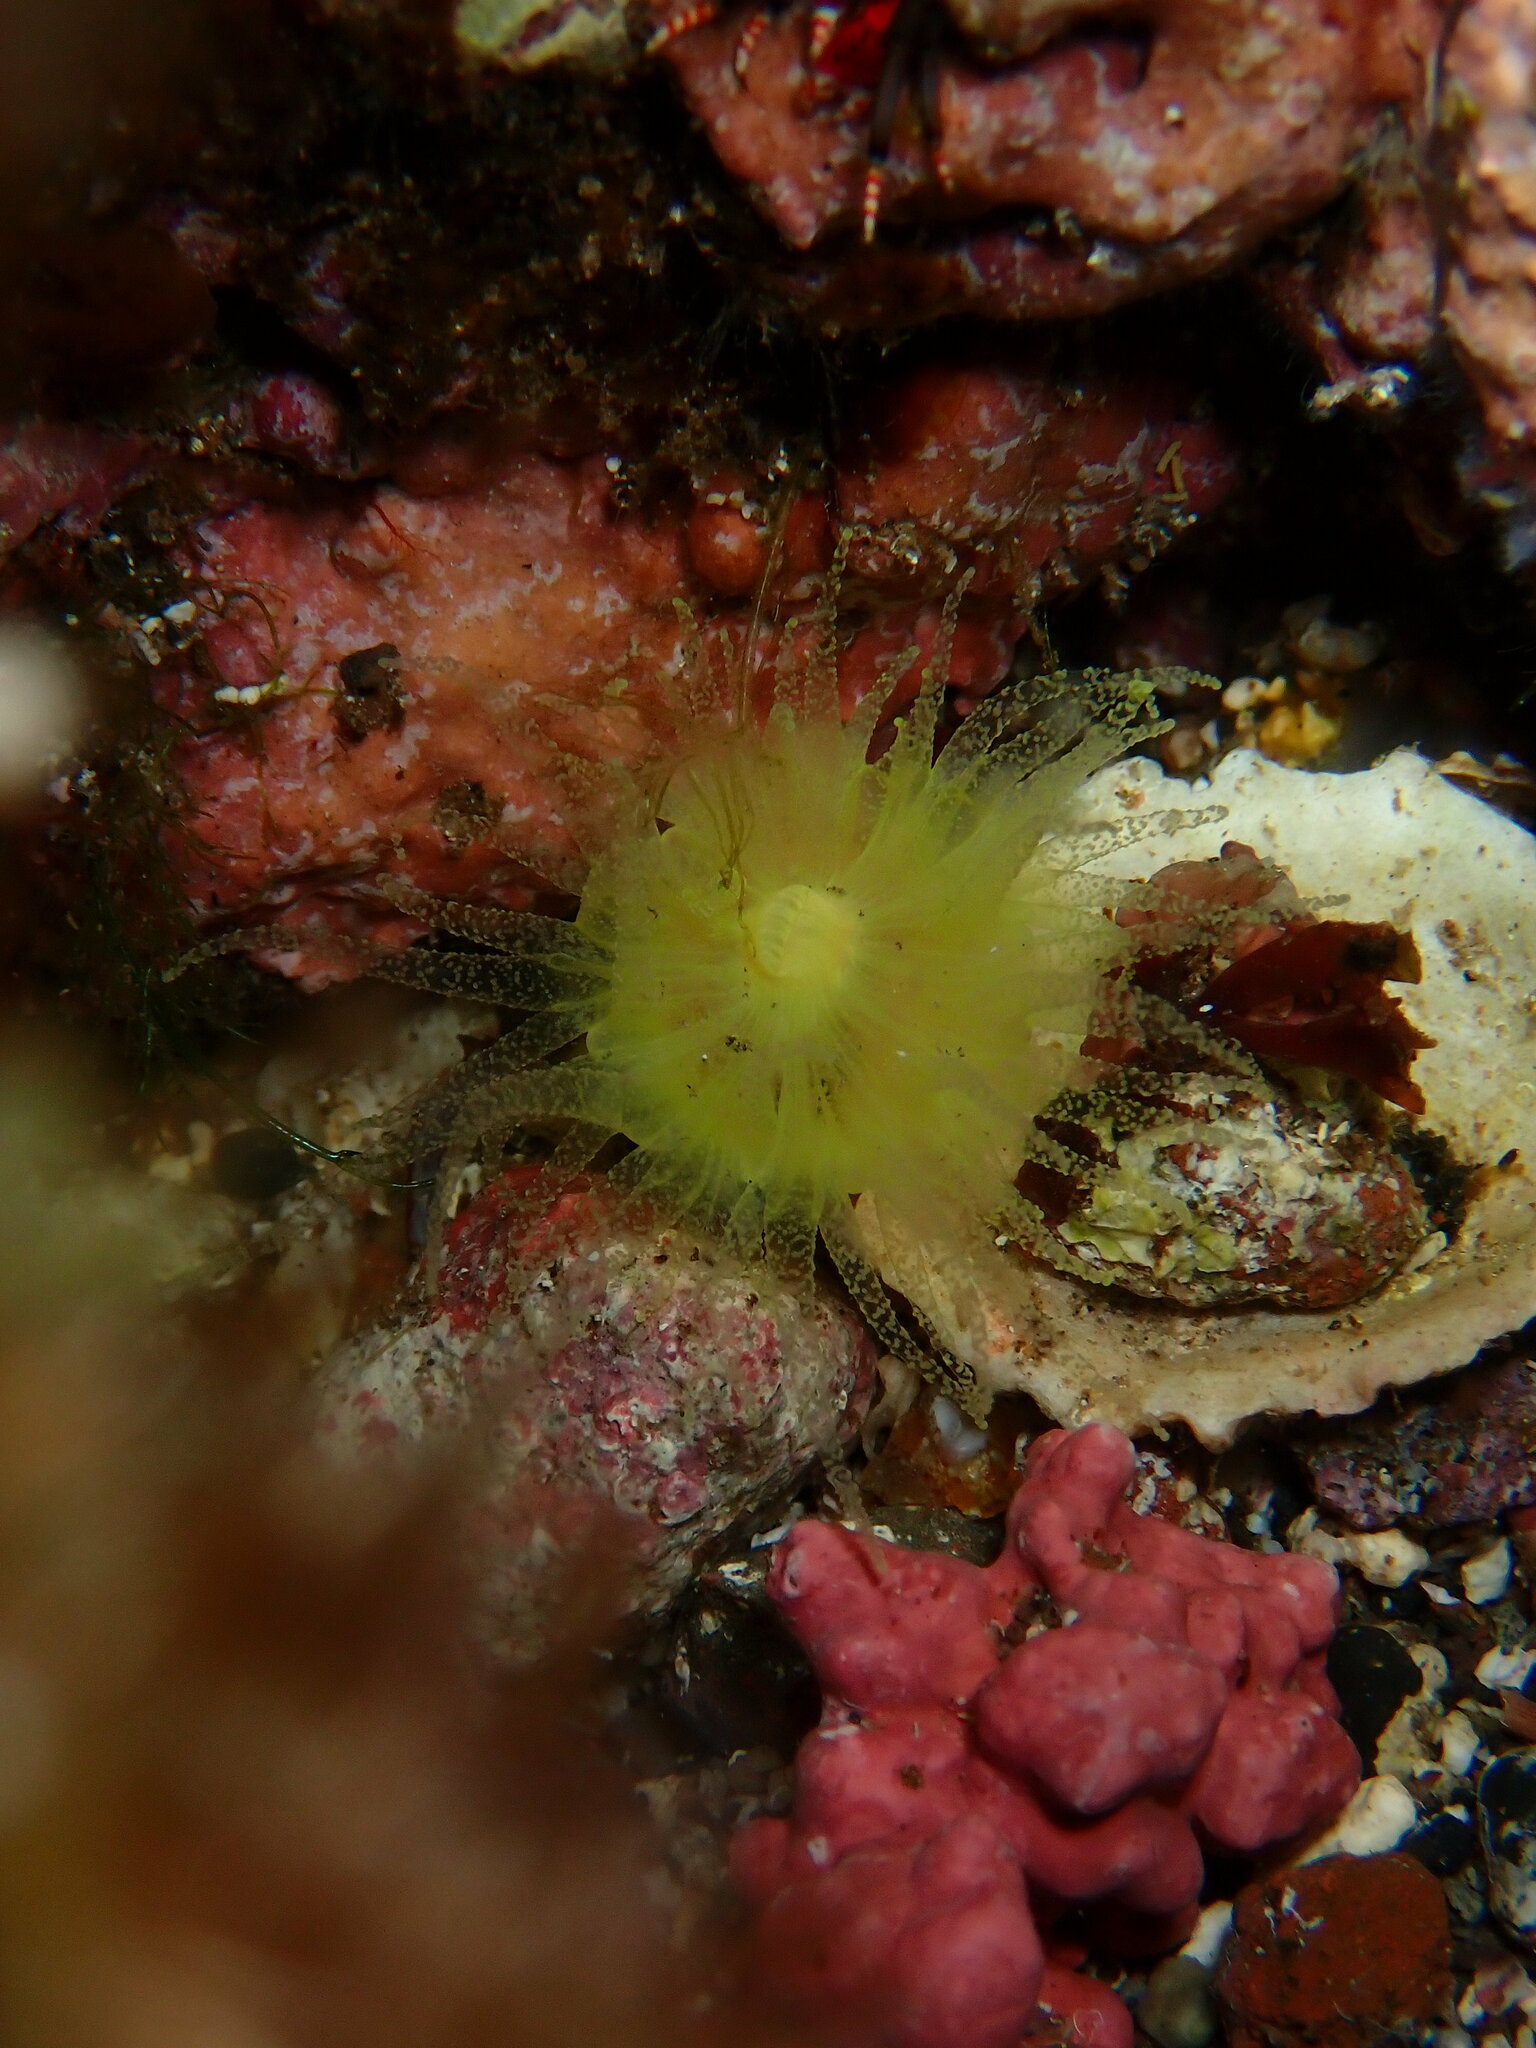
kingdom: Animalia
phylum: Cnidaria
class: Anthozoa
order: Scleractinia
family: Dendrophylliidae
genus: Balanophyllia
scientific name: Balanophyllia regia
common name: Golden star coral
